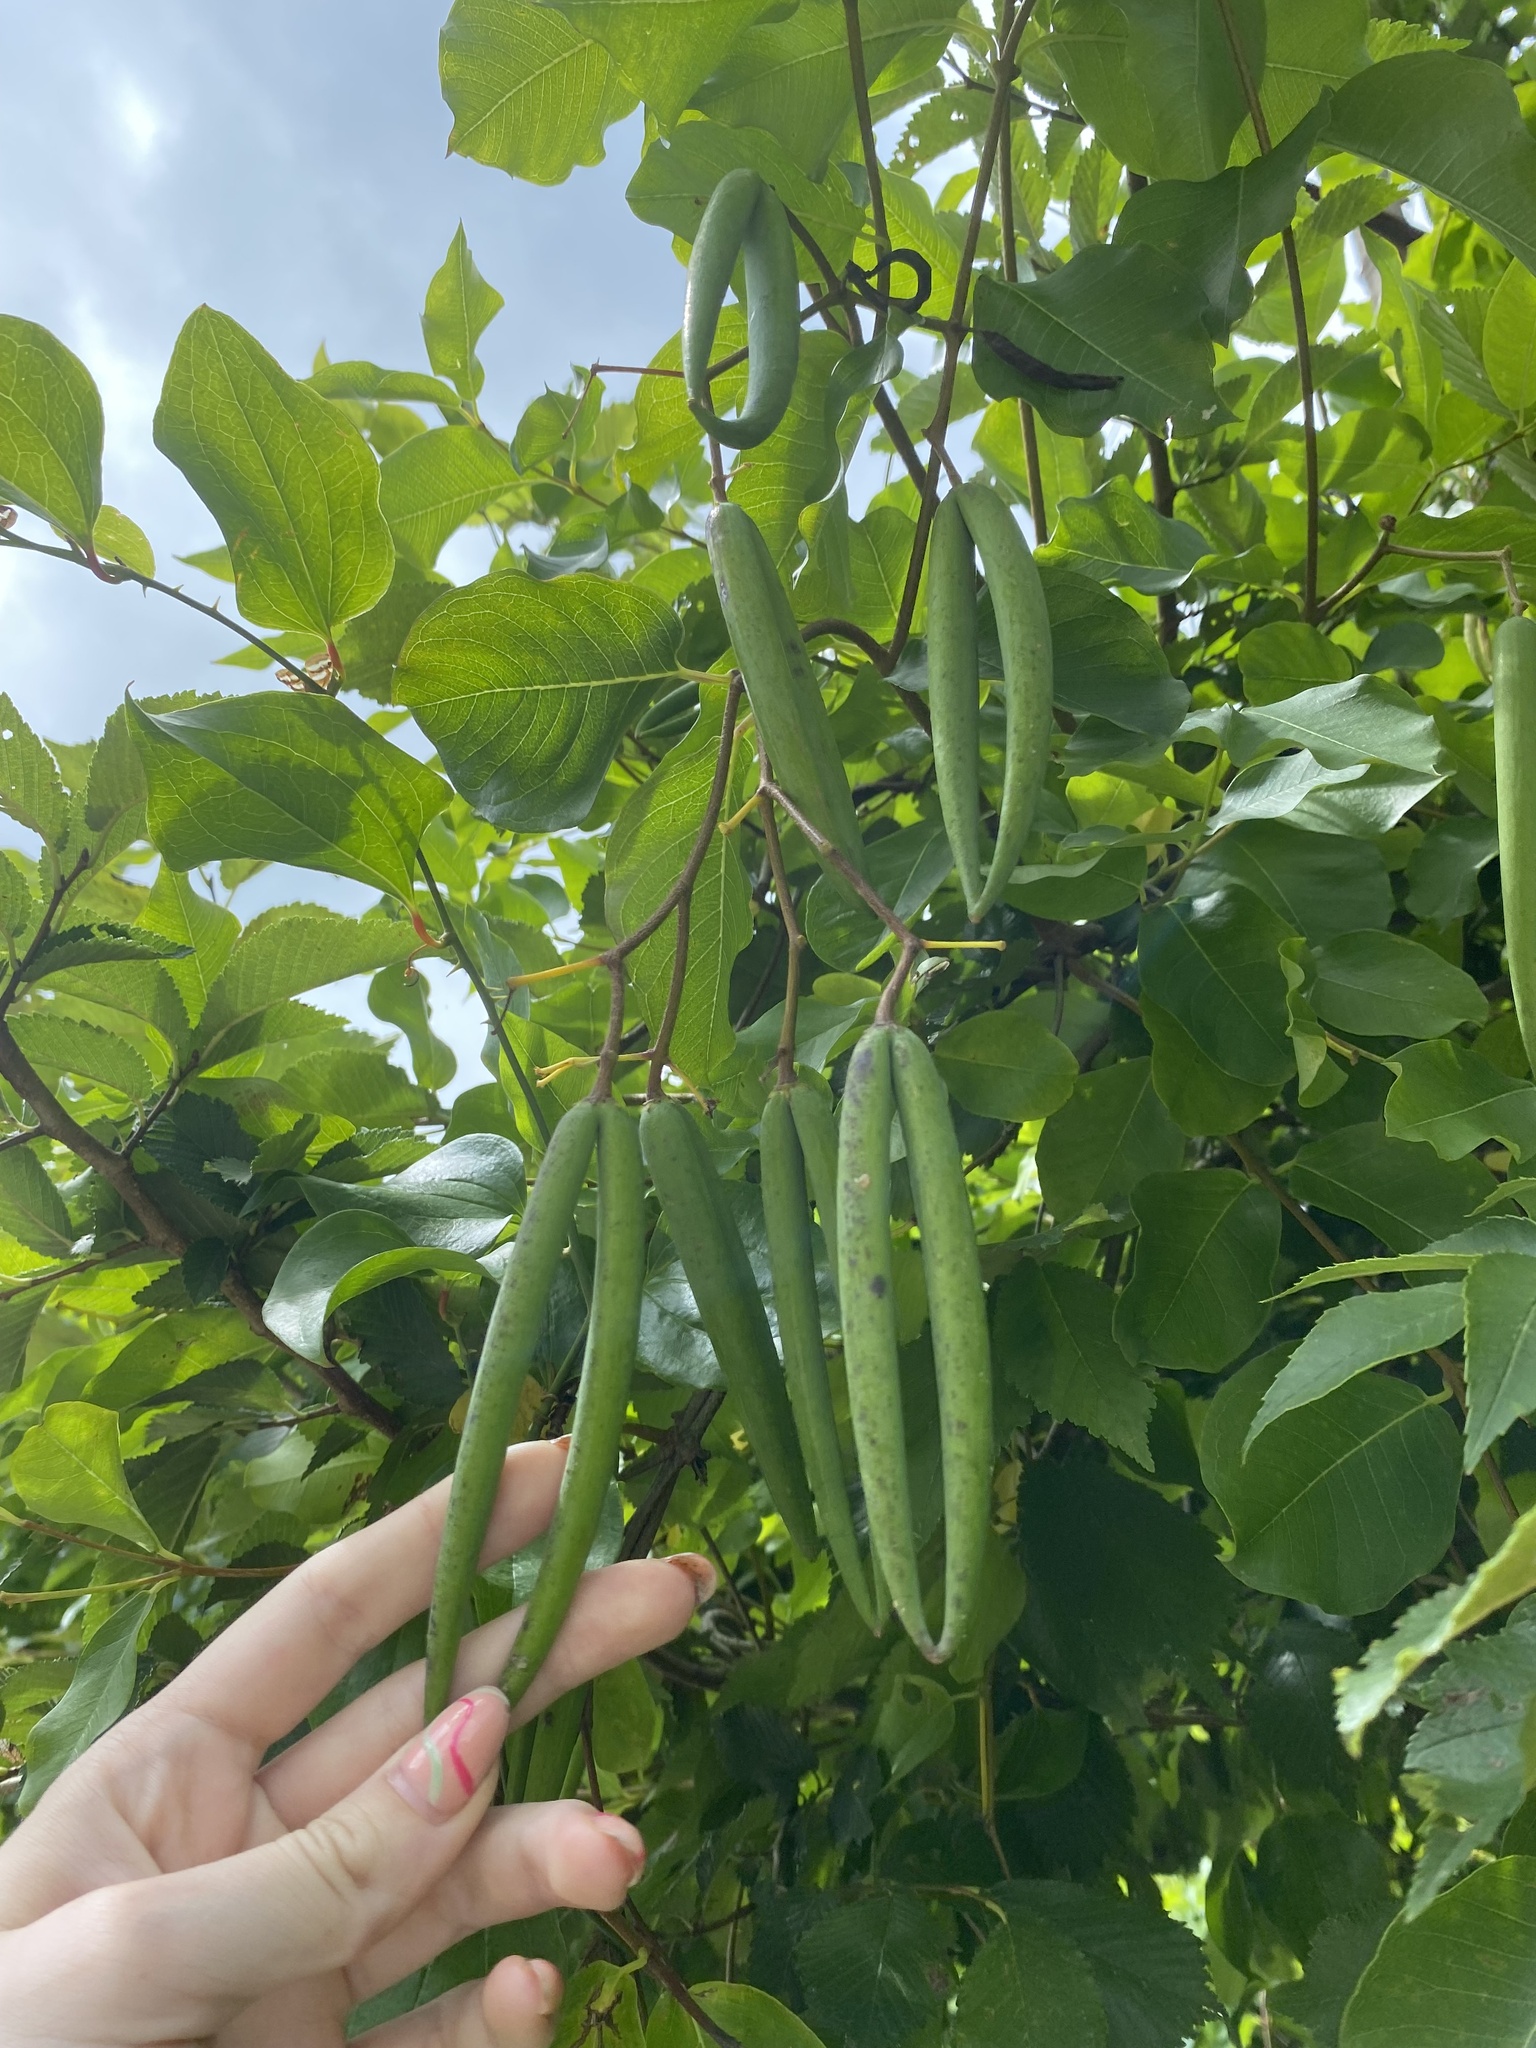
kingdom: Plantae
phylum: Tracheophyta
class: Magnoliopsida
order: Gentianales
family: Apocynaceae
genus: Periploca
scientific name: Periploca graeca
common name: Silkvine
